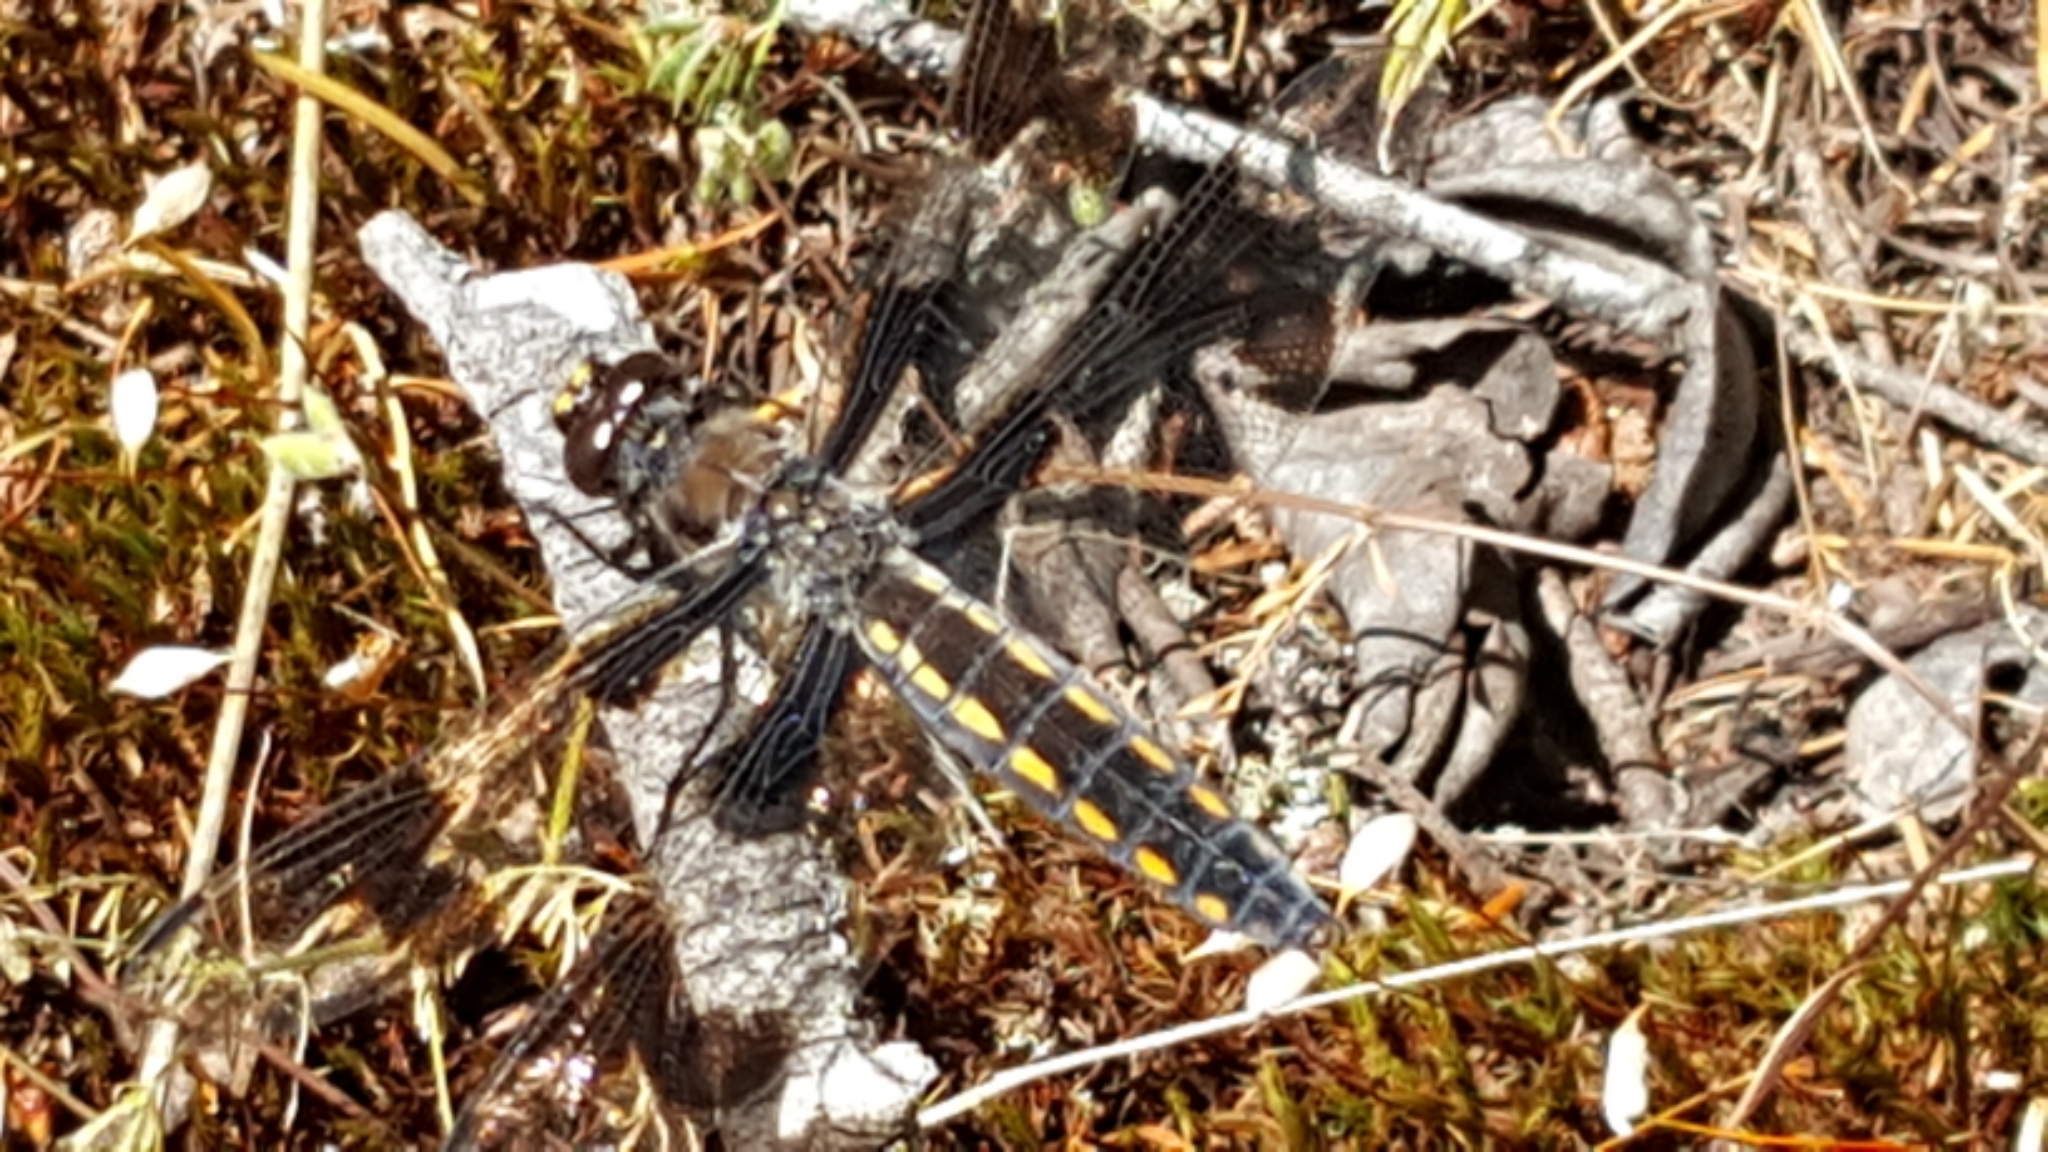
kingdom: Animalia
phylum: Arthropoda
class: Insecta
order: Odonata
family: Libellulidae
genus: Libellula
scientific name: Libellula forensis
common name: Eight-spotted skimmer
